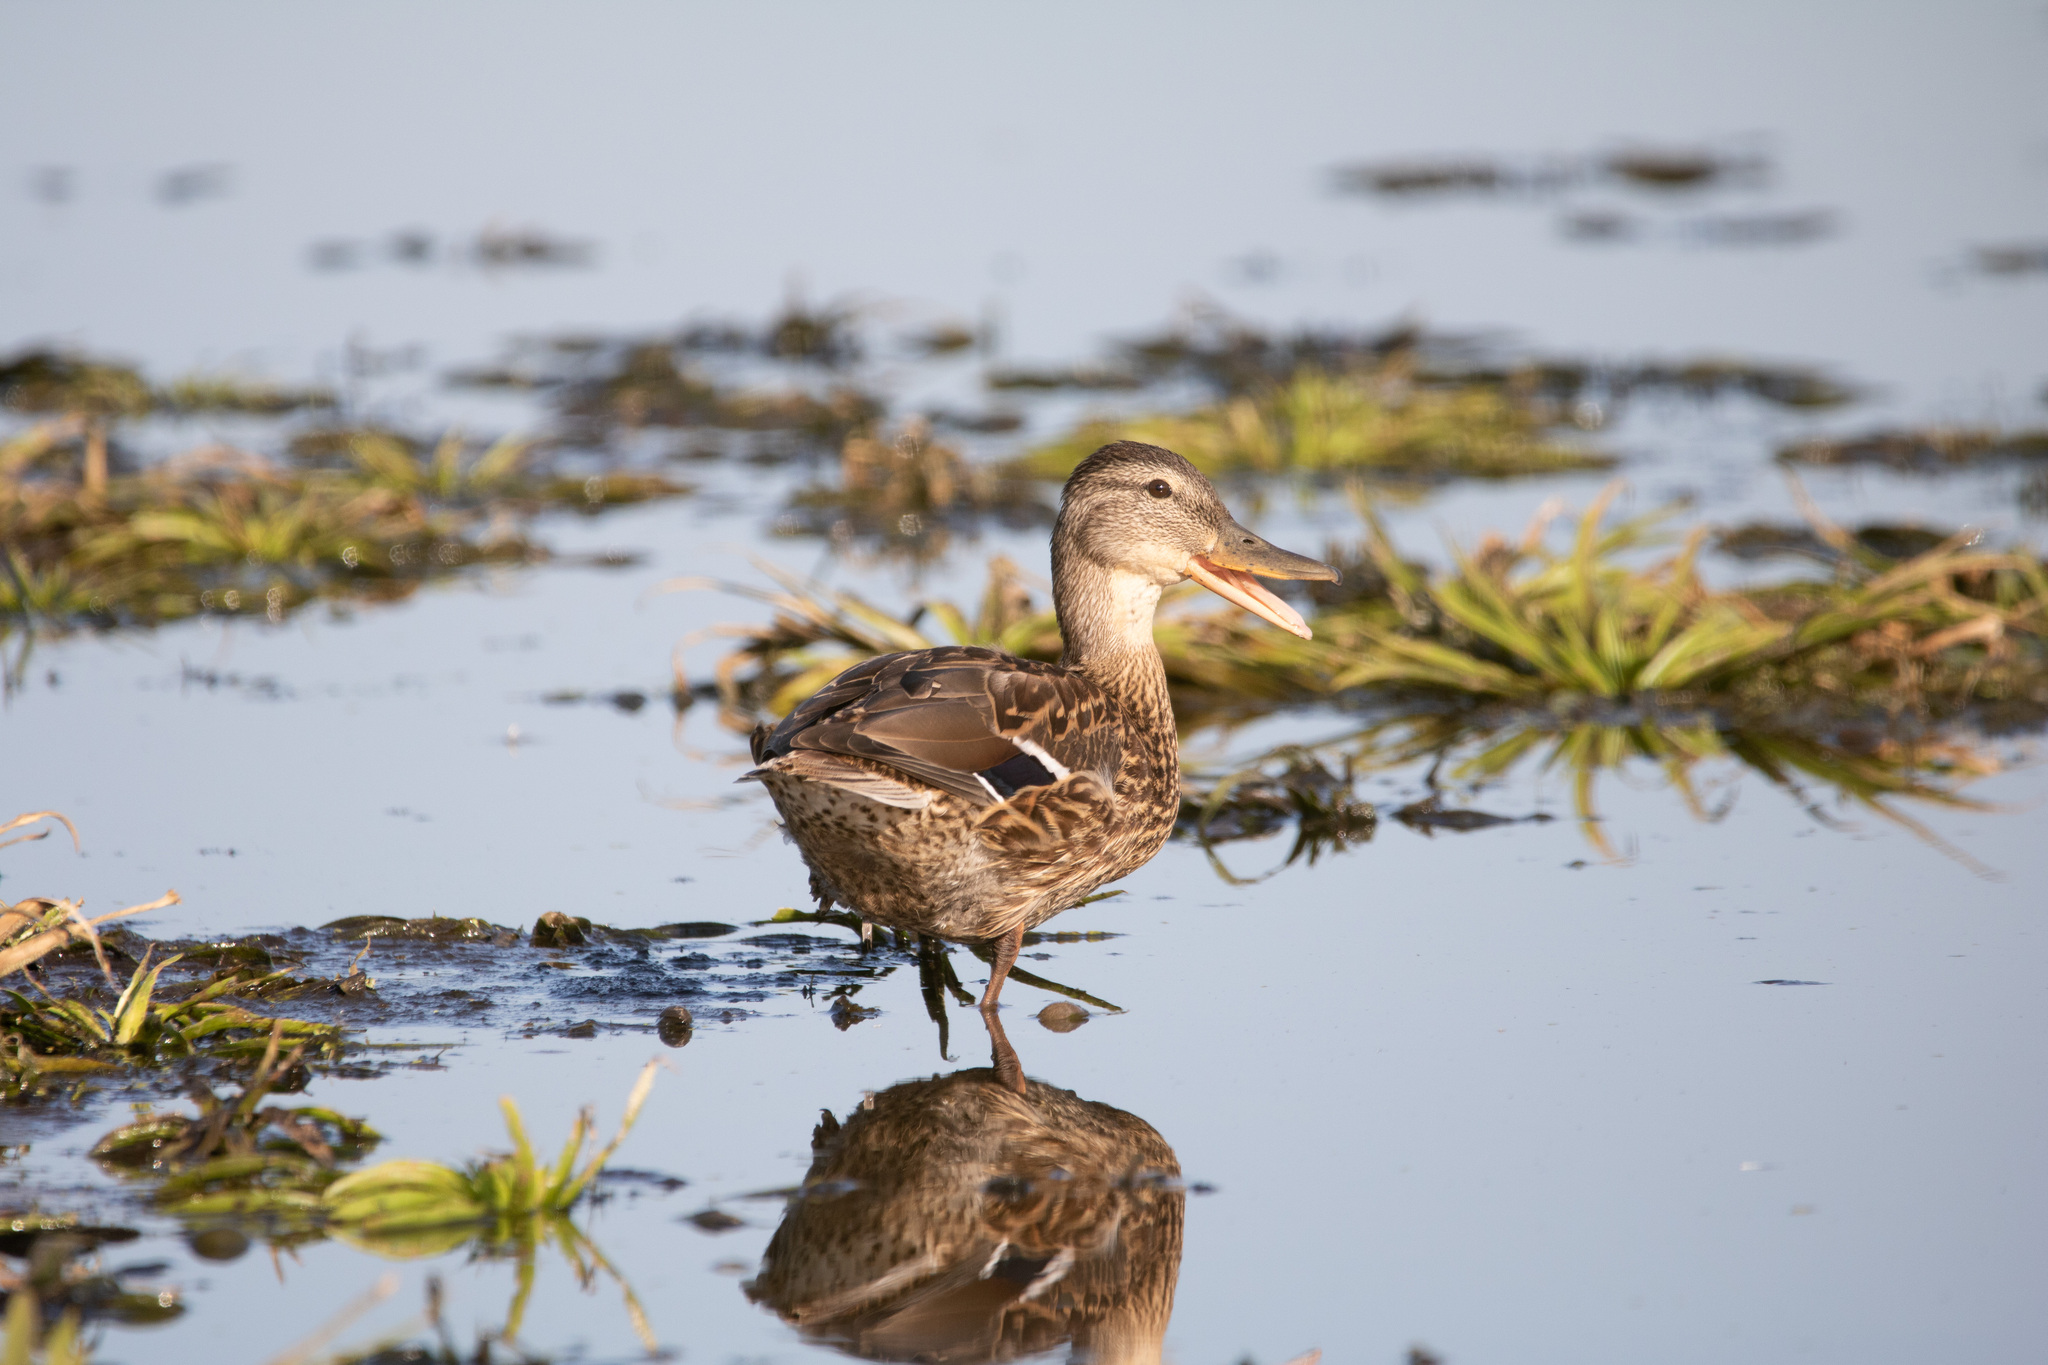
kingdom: Animalia
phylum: Chordata
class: Aves
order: Anseriformes
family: Anatidae
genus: Anas
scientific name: Anas platyrhynchos
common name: Mallard
